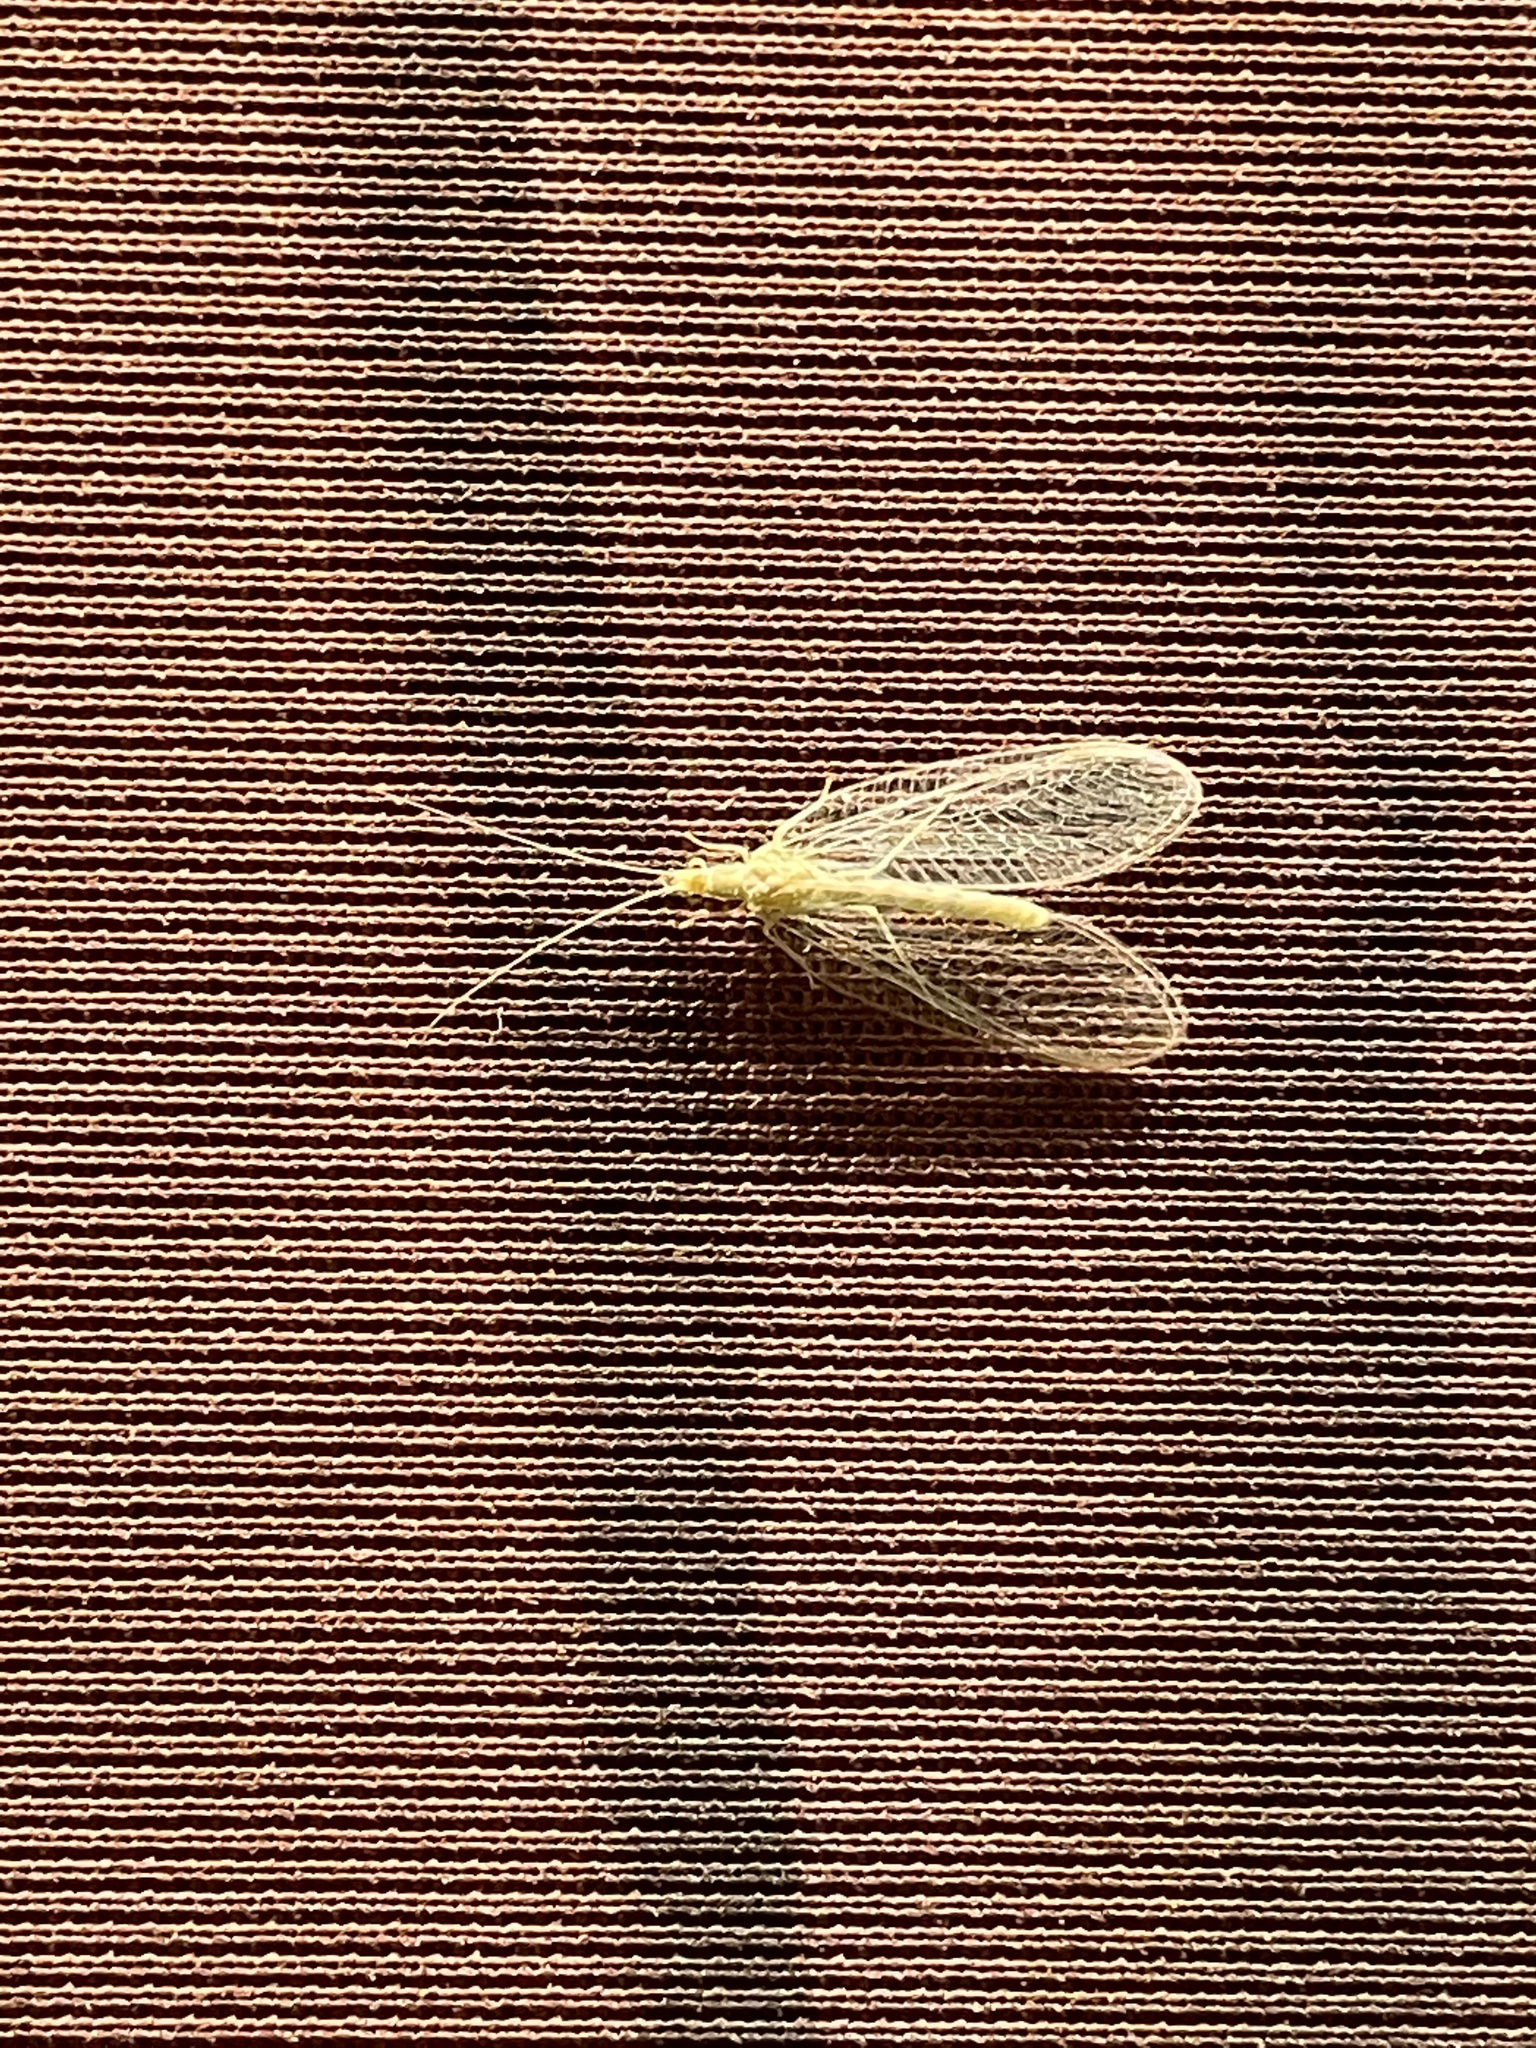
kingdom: Animalia
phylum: Arthropoda
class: Insecta
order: Neuroptera
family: Chrysopidae
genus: Chrysoperla
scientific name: Chrysoperla
